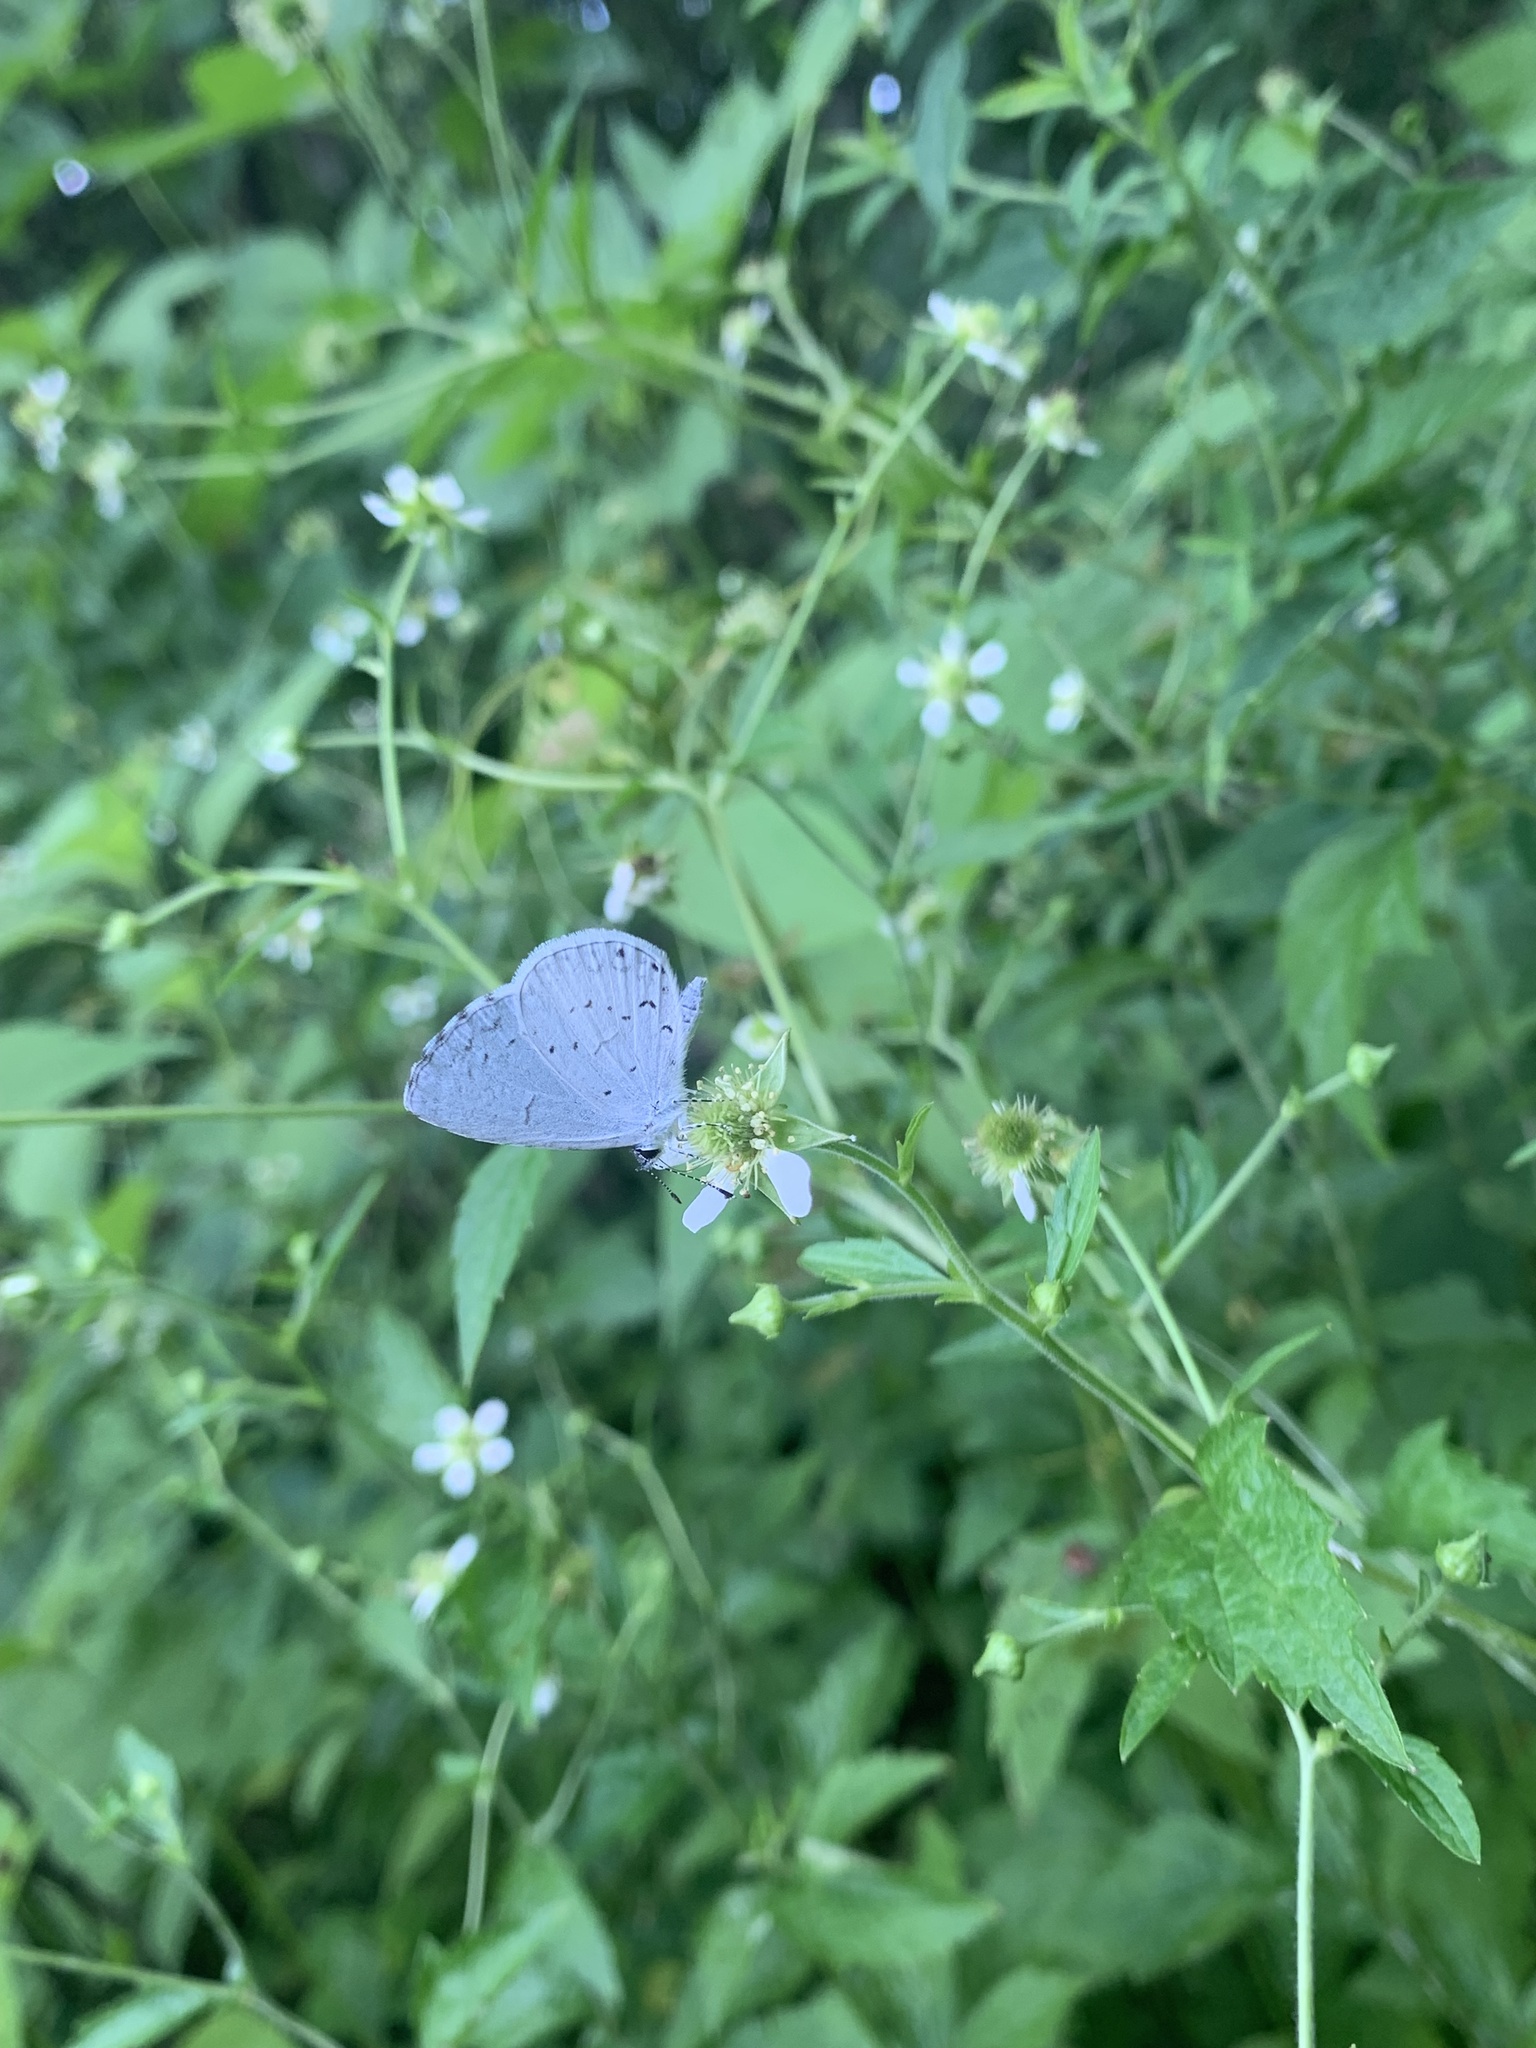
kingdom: Animalia
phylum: Arthropoda
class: Insecta
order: Lepidoptera
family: Lycaenidae
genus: Cyaniris
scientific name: Cyaniris neglecta
